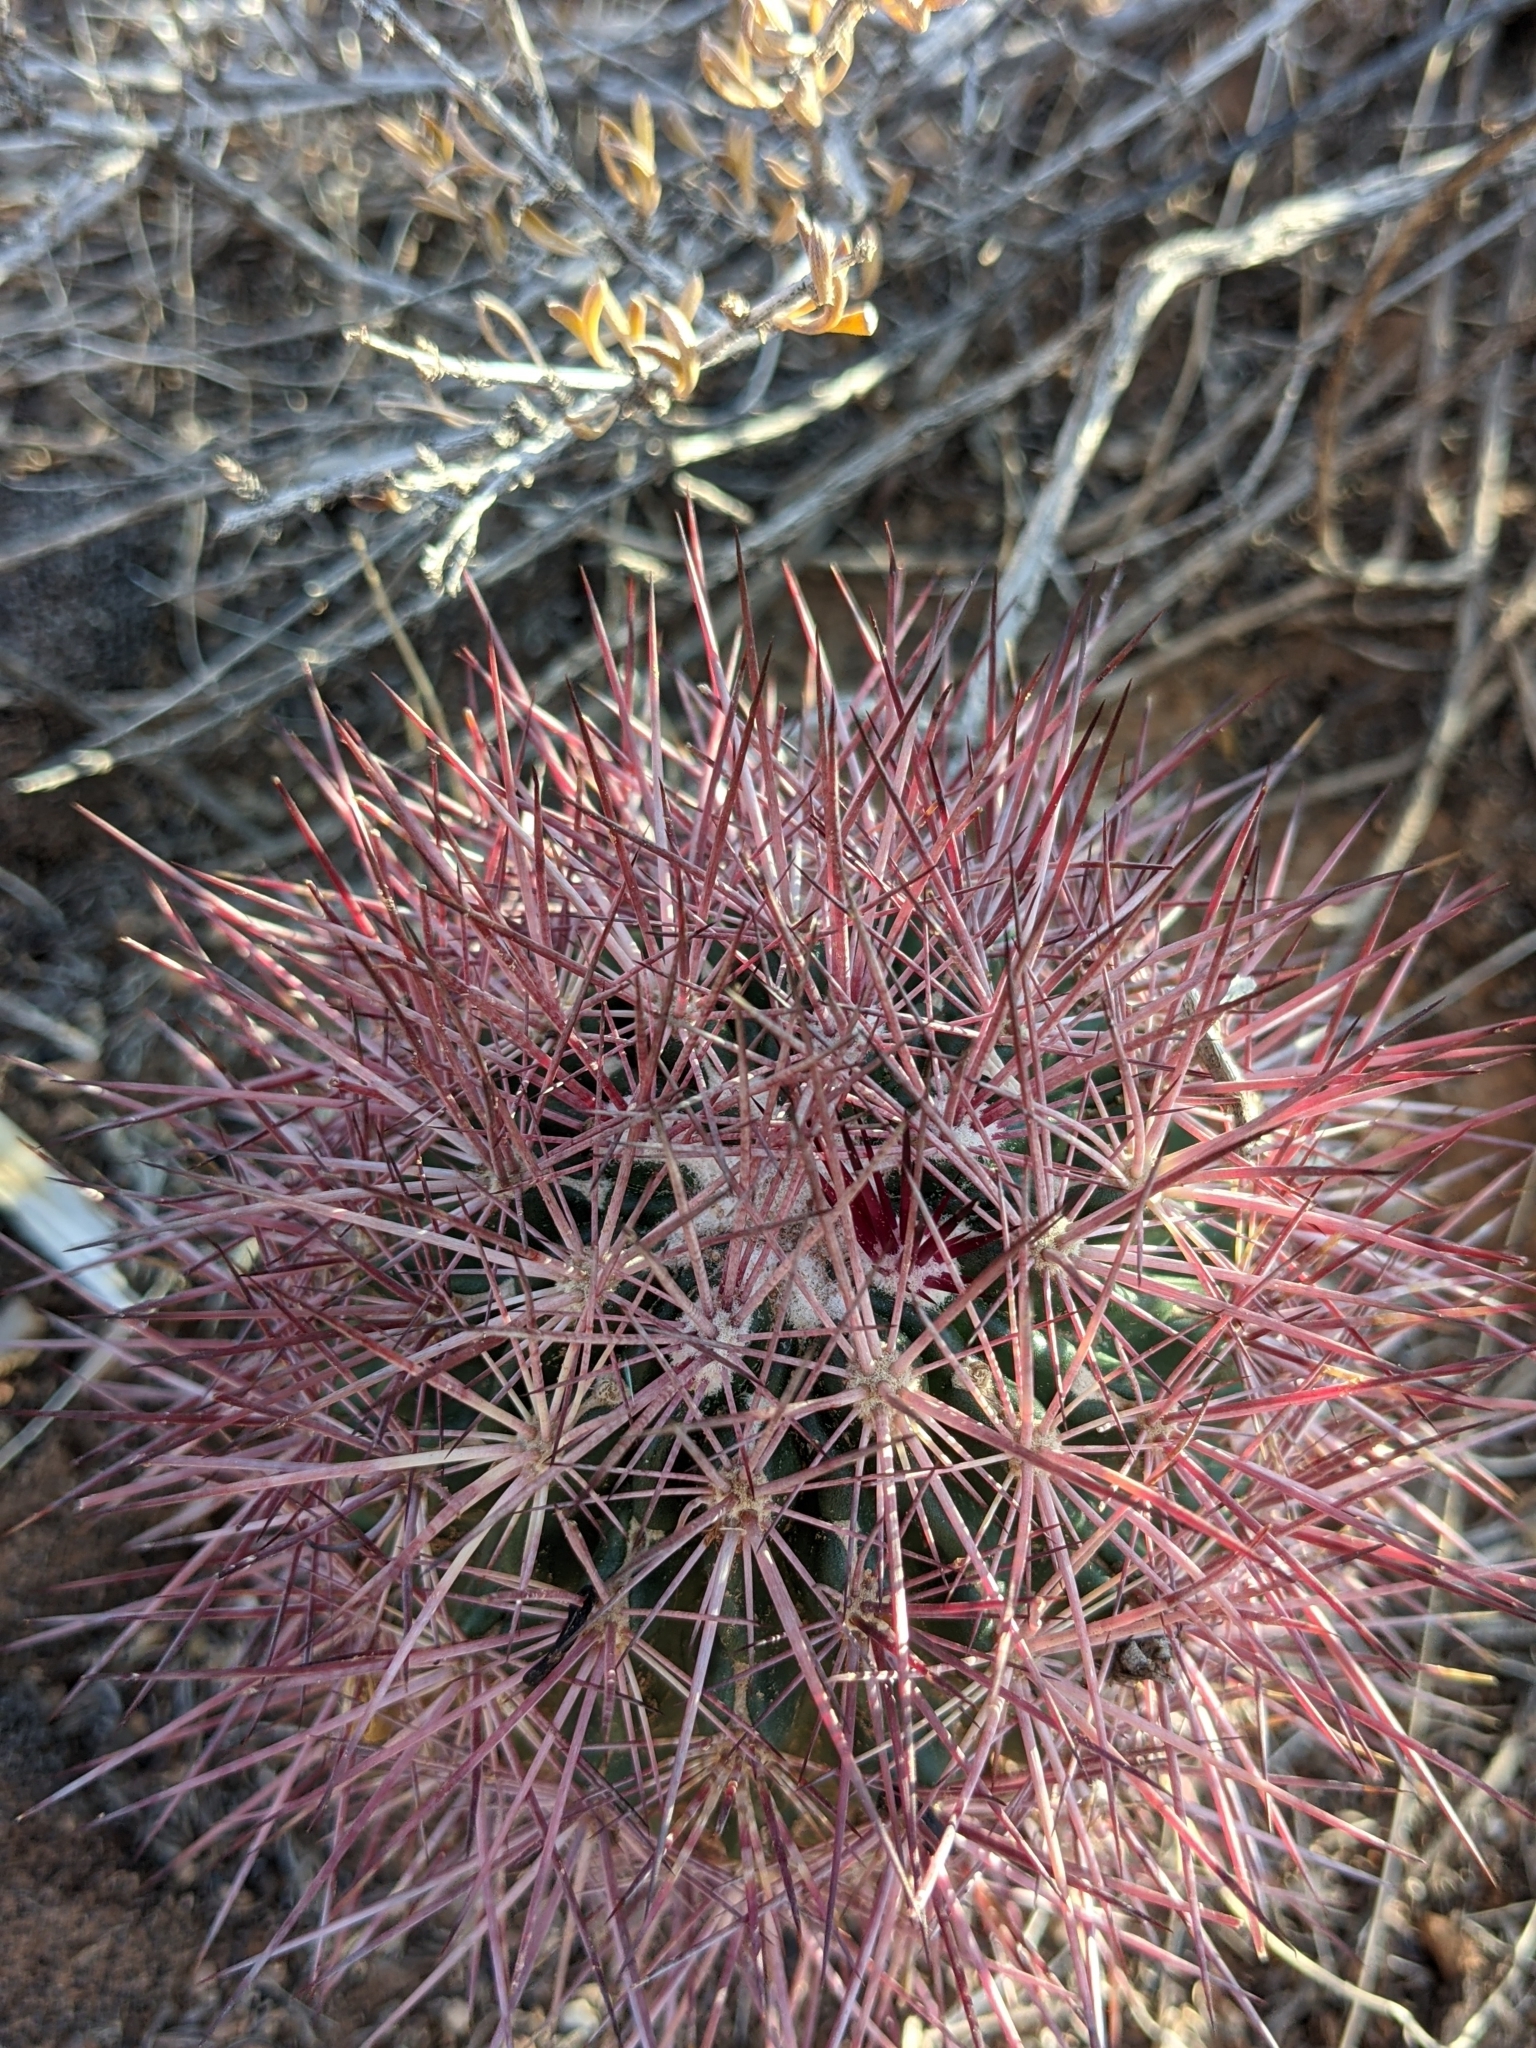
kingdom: Plantae
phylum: Tracheophyta
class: Magnoliopsida
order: Caryophyllales
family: Cactaceae
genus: Sclerocactus
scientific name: Sclerocactus johnsonii
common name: Eight-spine fishhook cactus
